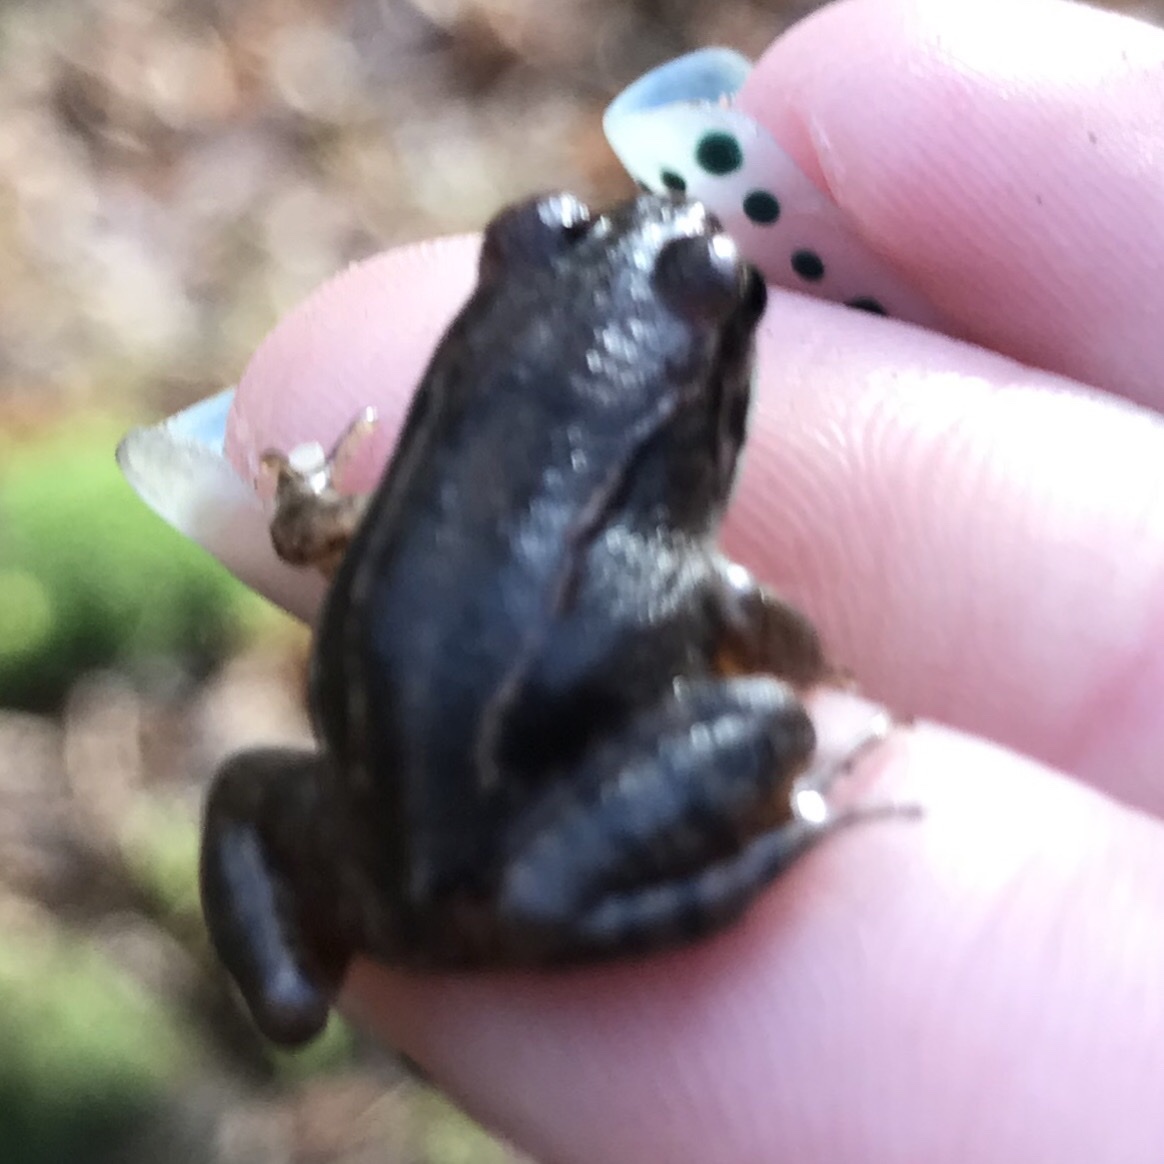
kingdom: Animalia
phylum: Chordata
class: Amphibia
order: Anura
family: Ranidae
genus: Rana
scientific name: Rana arvalis
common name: Moor frog
